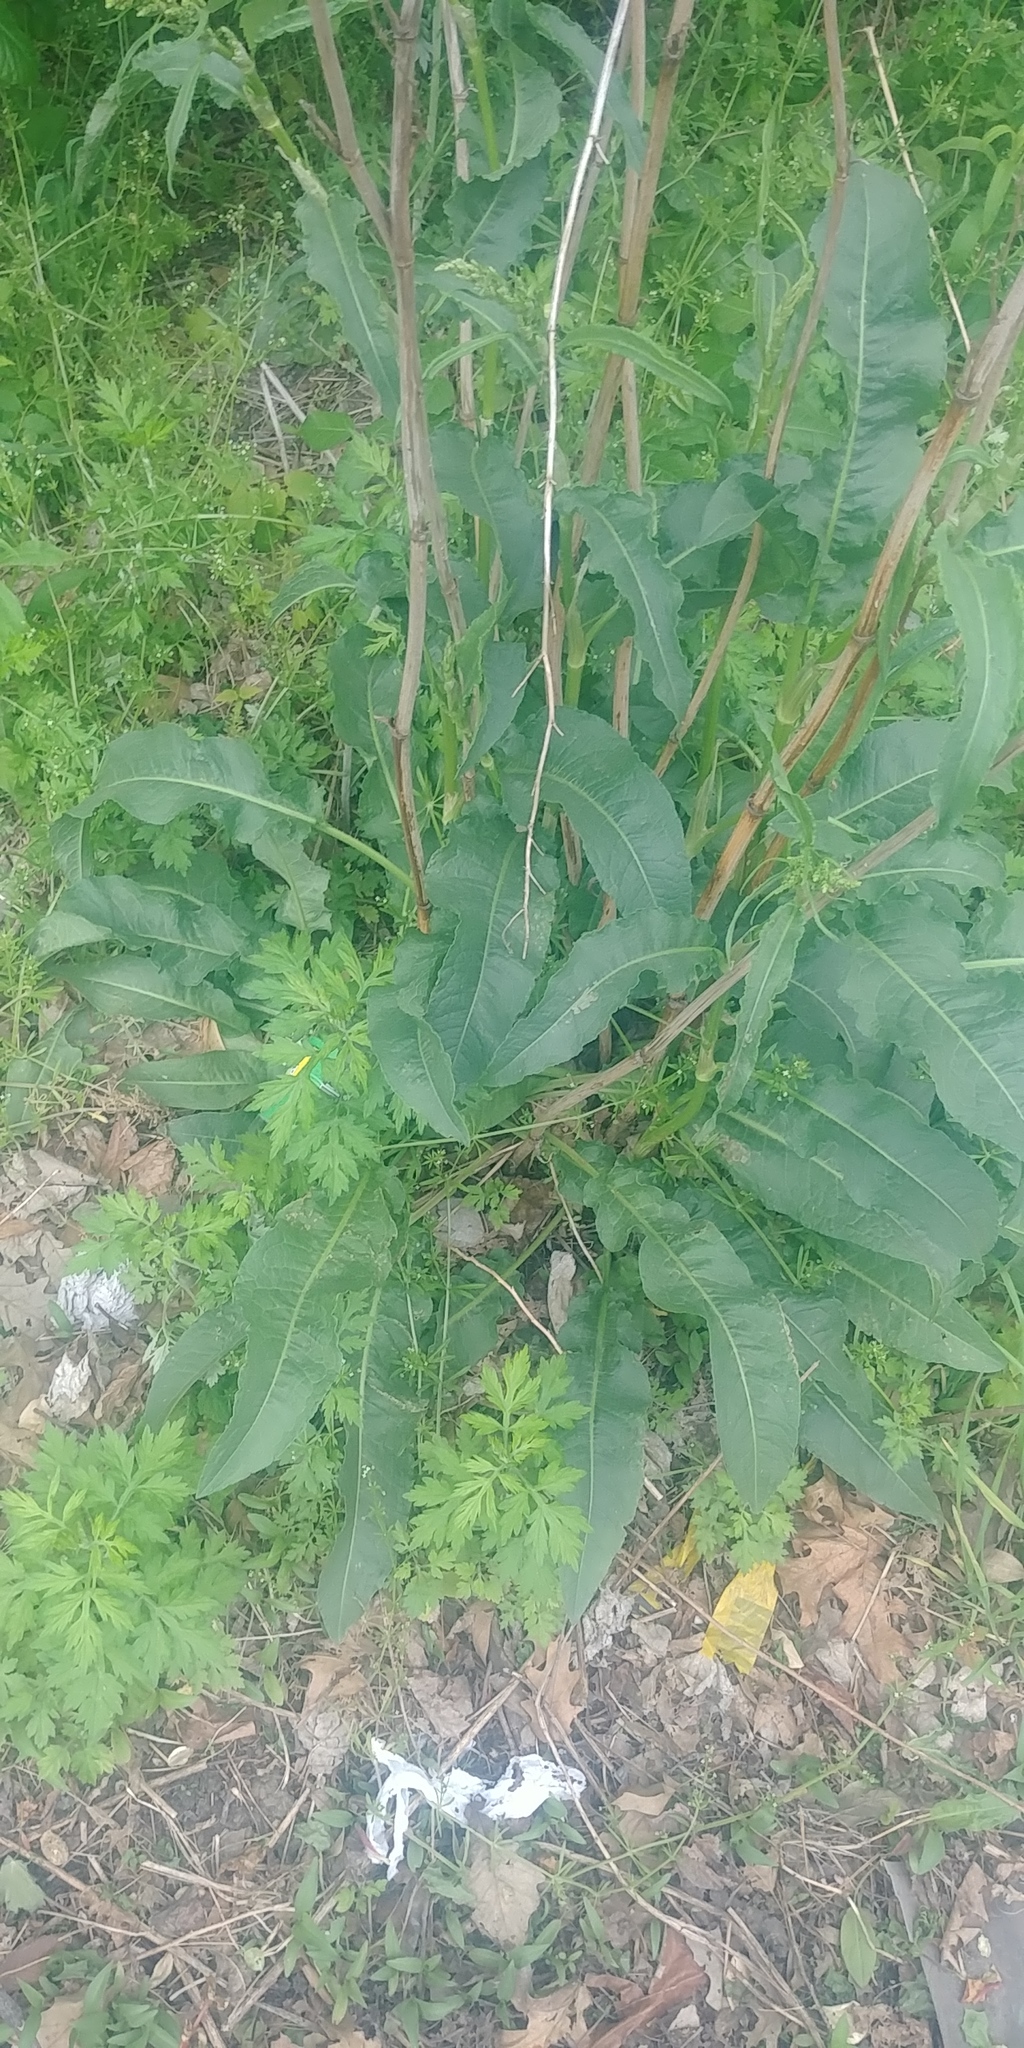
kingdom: Plantae
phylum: Tracheophyta
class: Magnoliopsida
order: Caryophyllales
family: Polygonaceae
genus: Rumex
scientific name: Rumex crispus
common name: Curled dock
